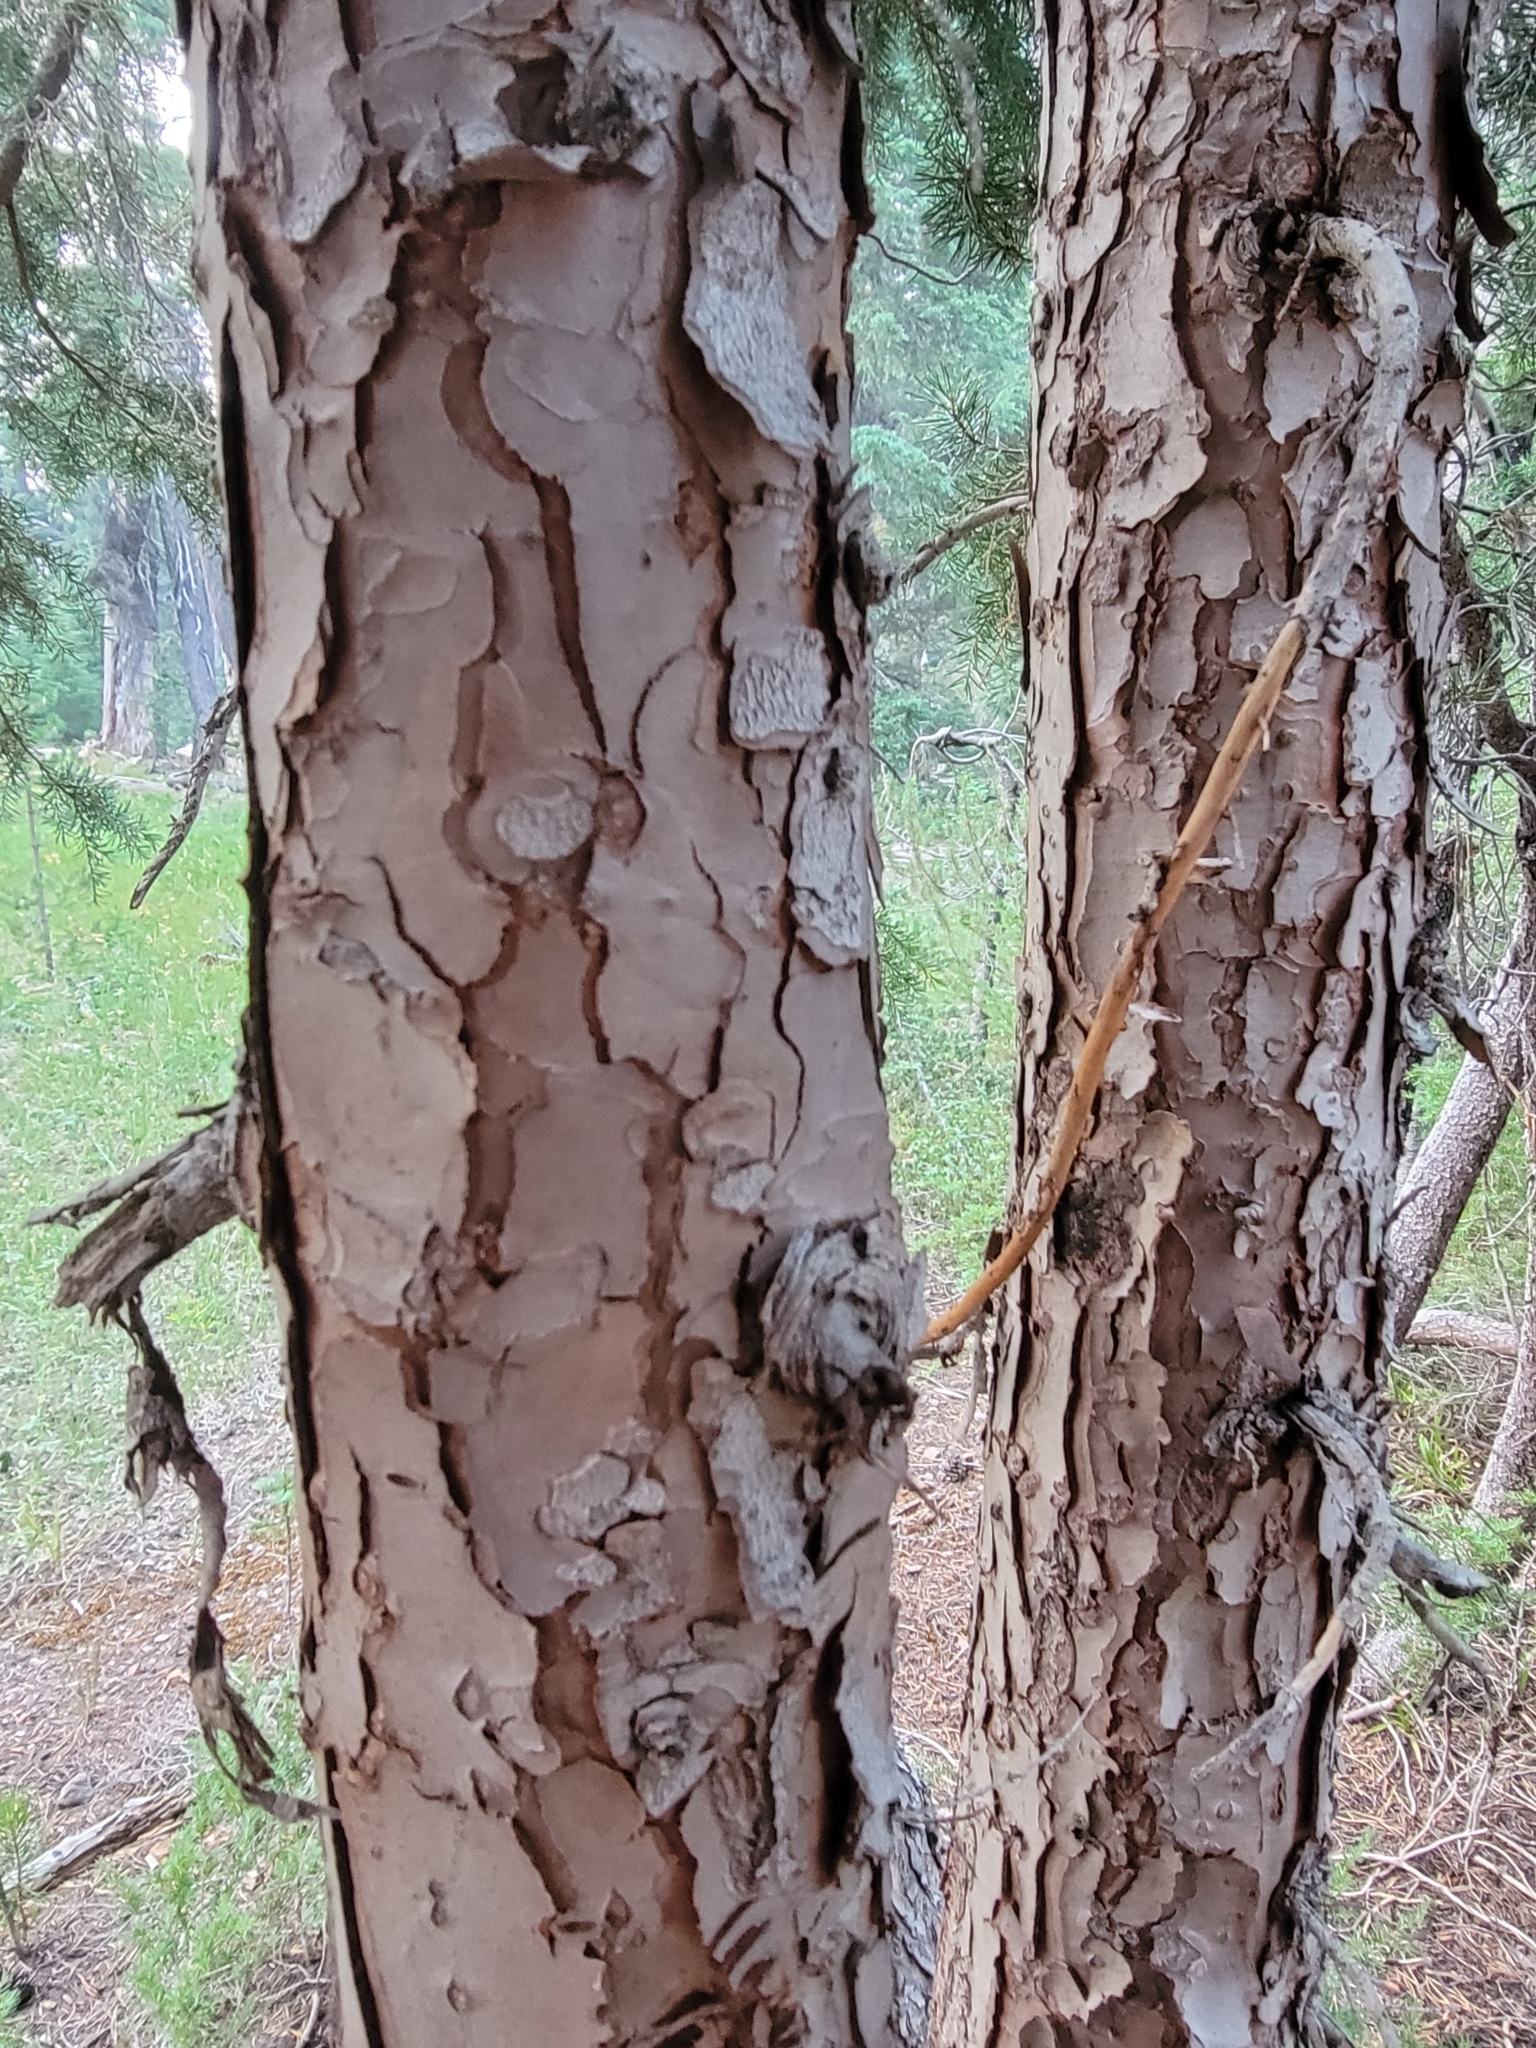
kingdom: Plantae
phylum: Tracheophyta
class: Pinopsida
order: Pinales
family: Pinaceae
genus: Tsuga
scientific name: Tsuga mertensiana
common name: Mountain hemlock
